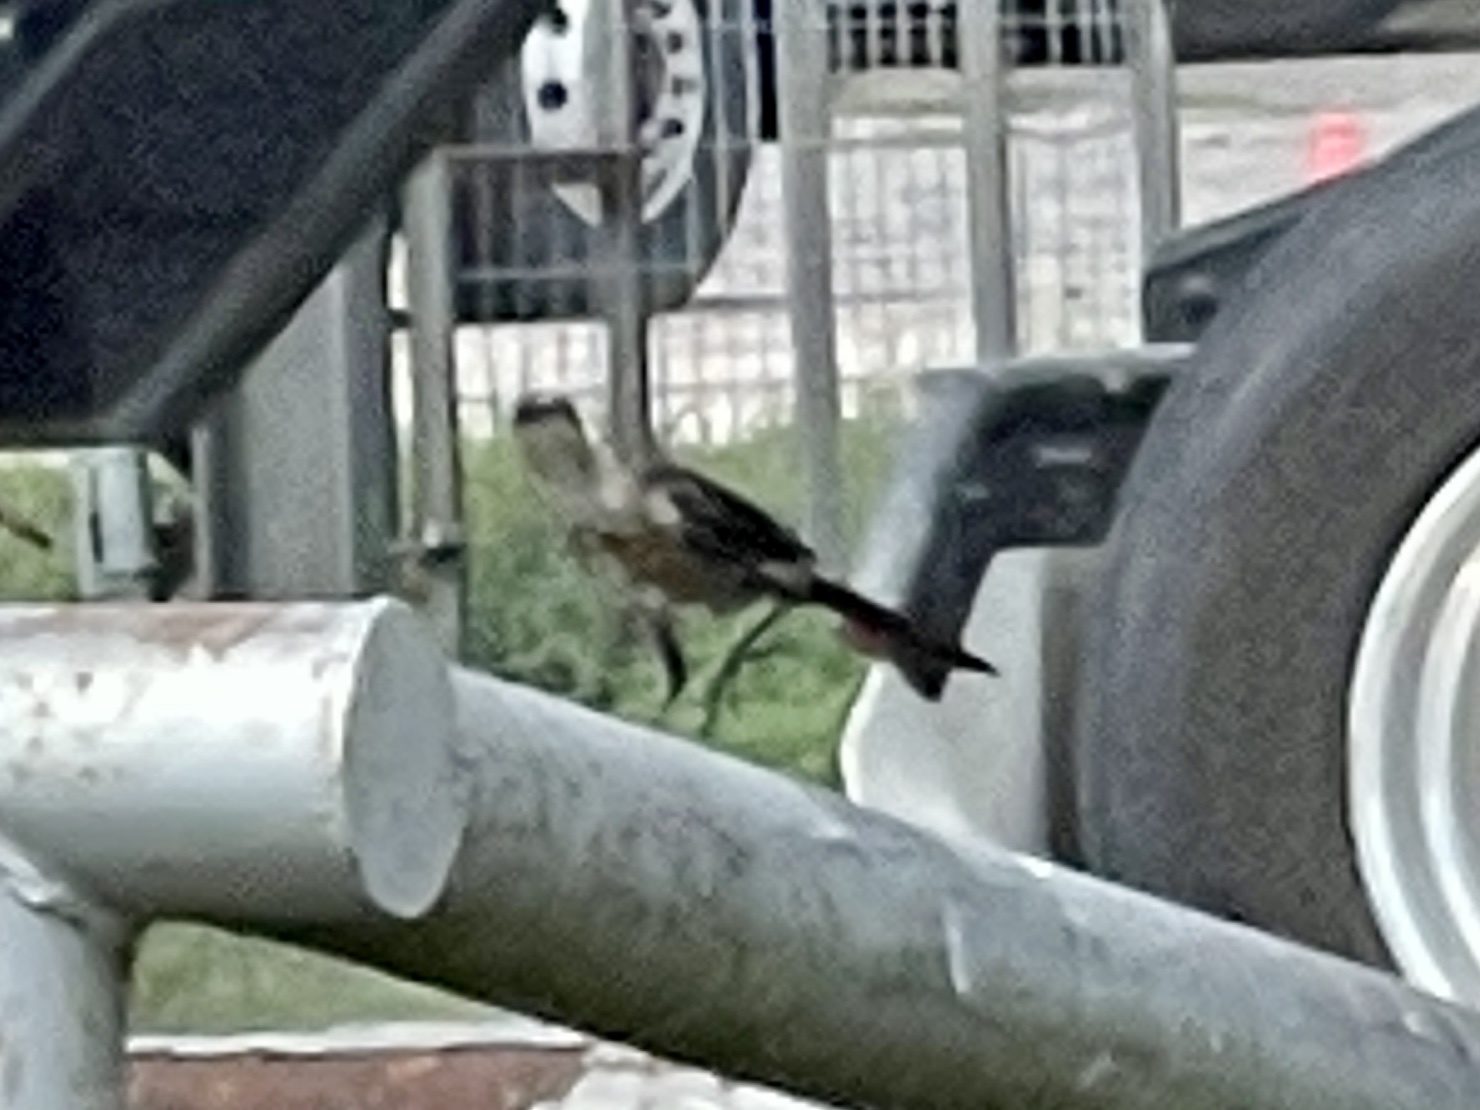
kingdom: Animalia
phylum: Chordata
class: Aves
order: Passeriformes
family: Icteridae
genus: Quiscalus
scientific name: Quiscalus mexicanus
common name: Great-tailed grackle
